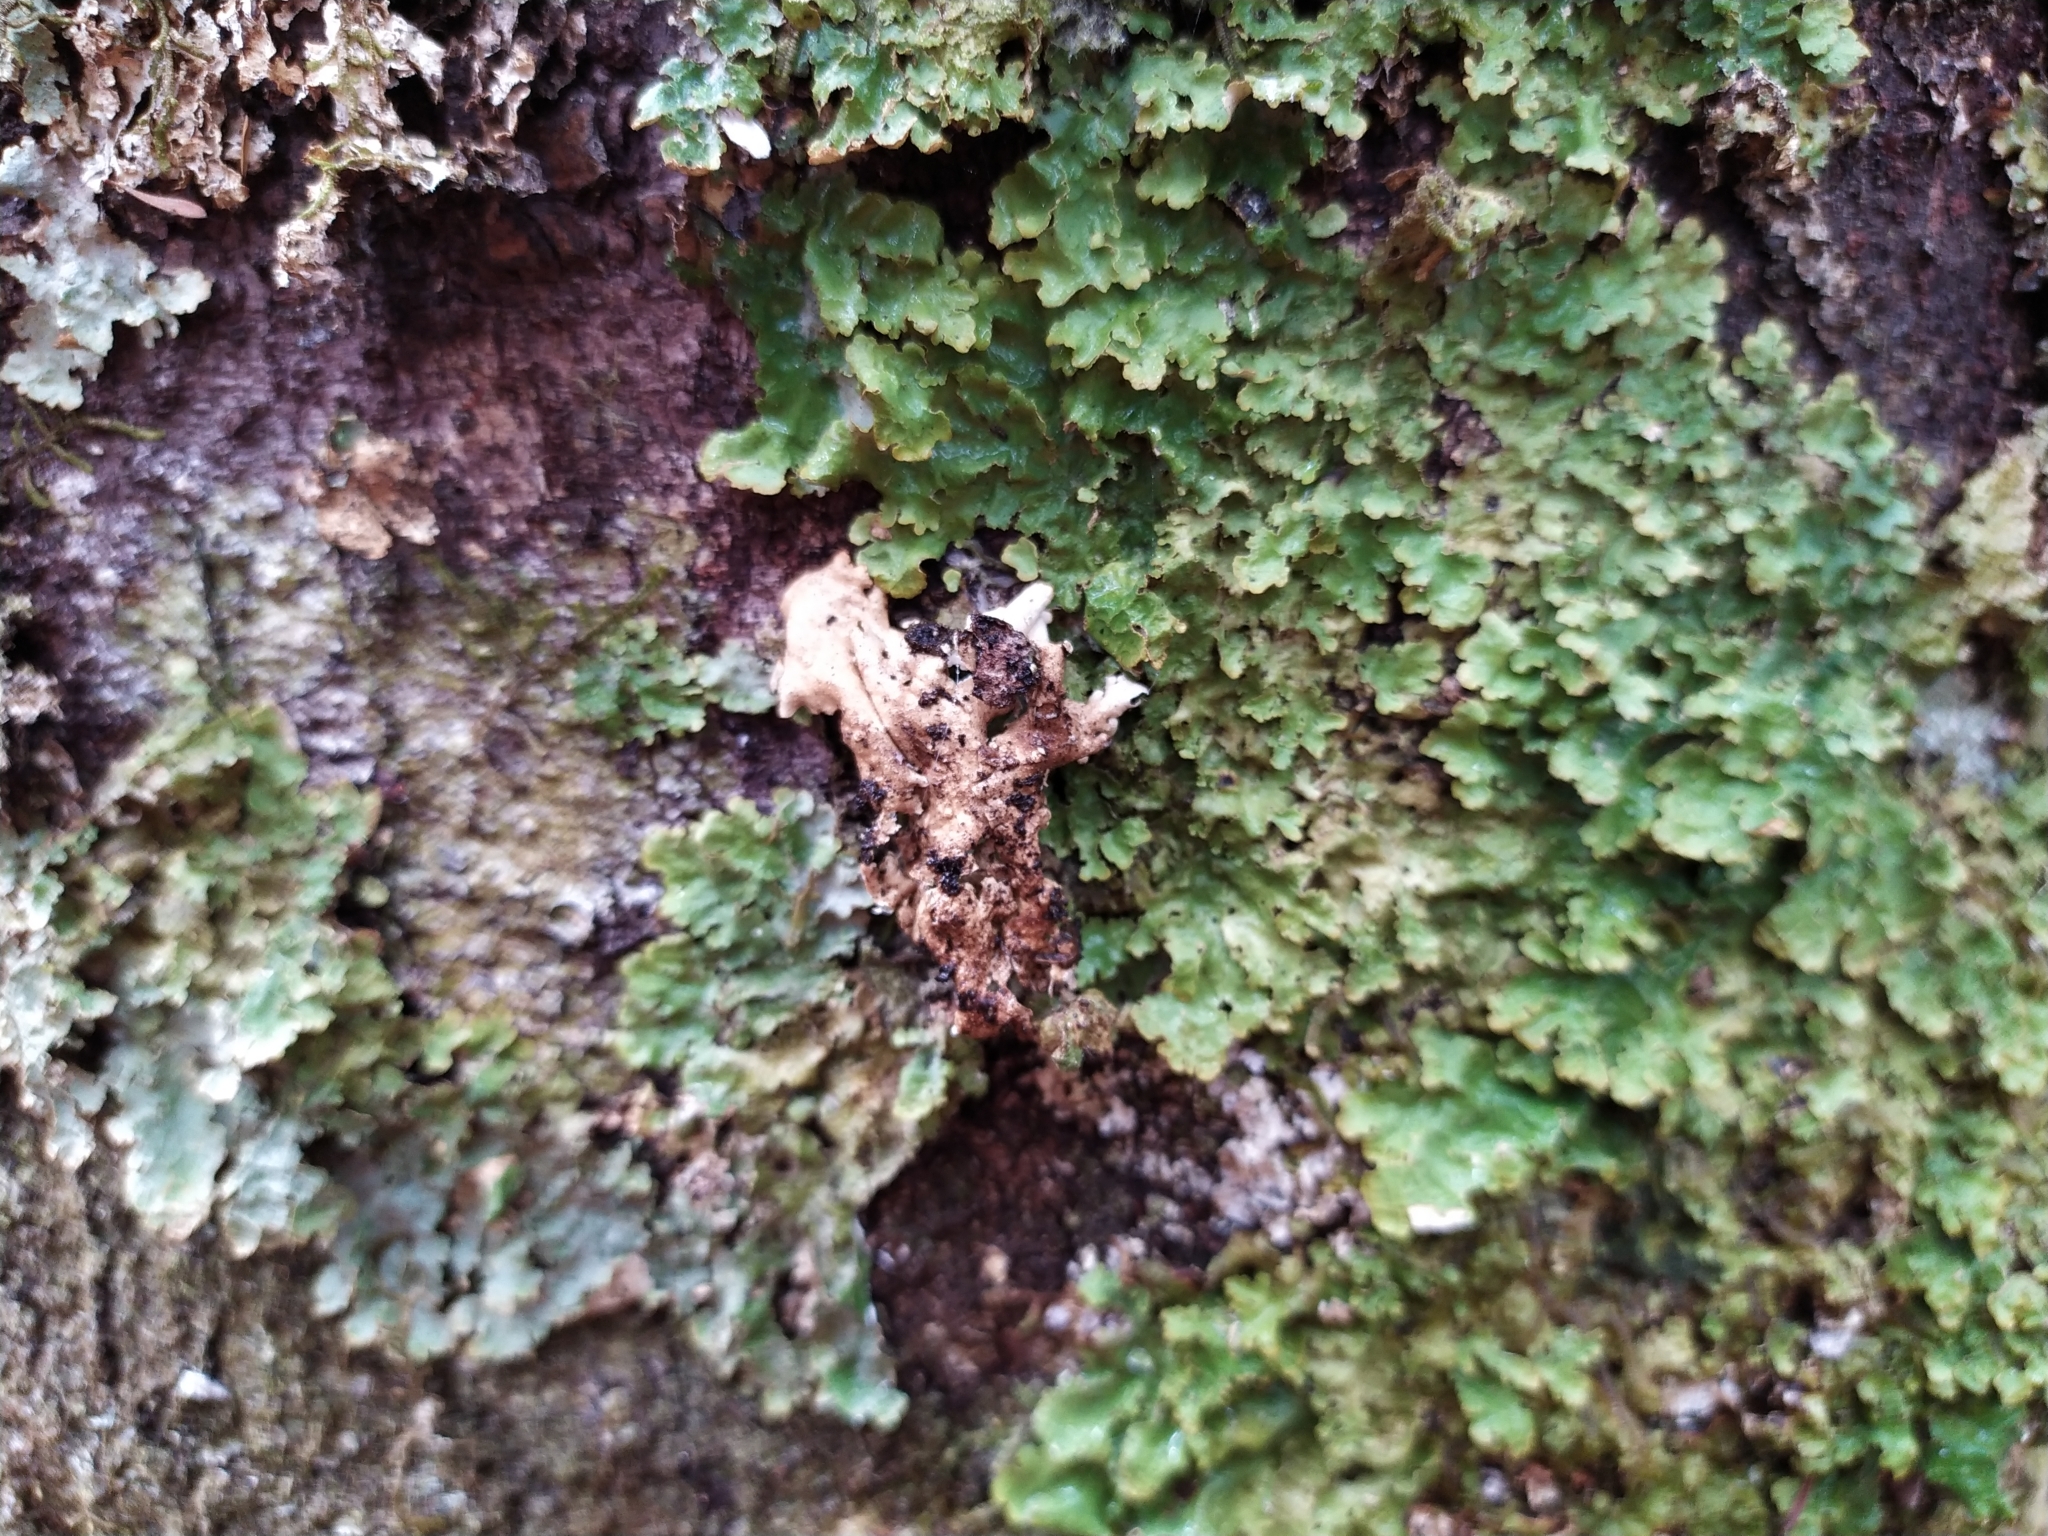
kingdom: Fungi
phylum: Ascomycota
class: Lecanoromycetes
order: Peltigerales
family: Lobariaceae
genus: Pseudocyphellaria
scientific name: Pseudocyphellaria montagnei
